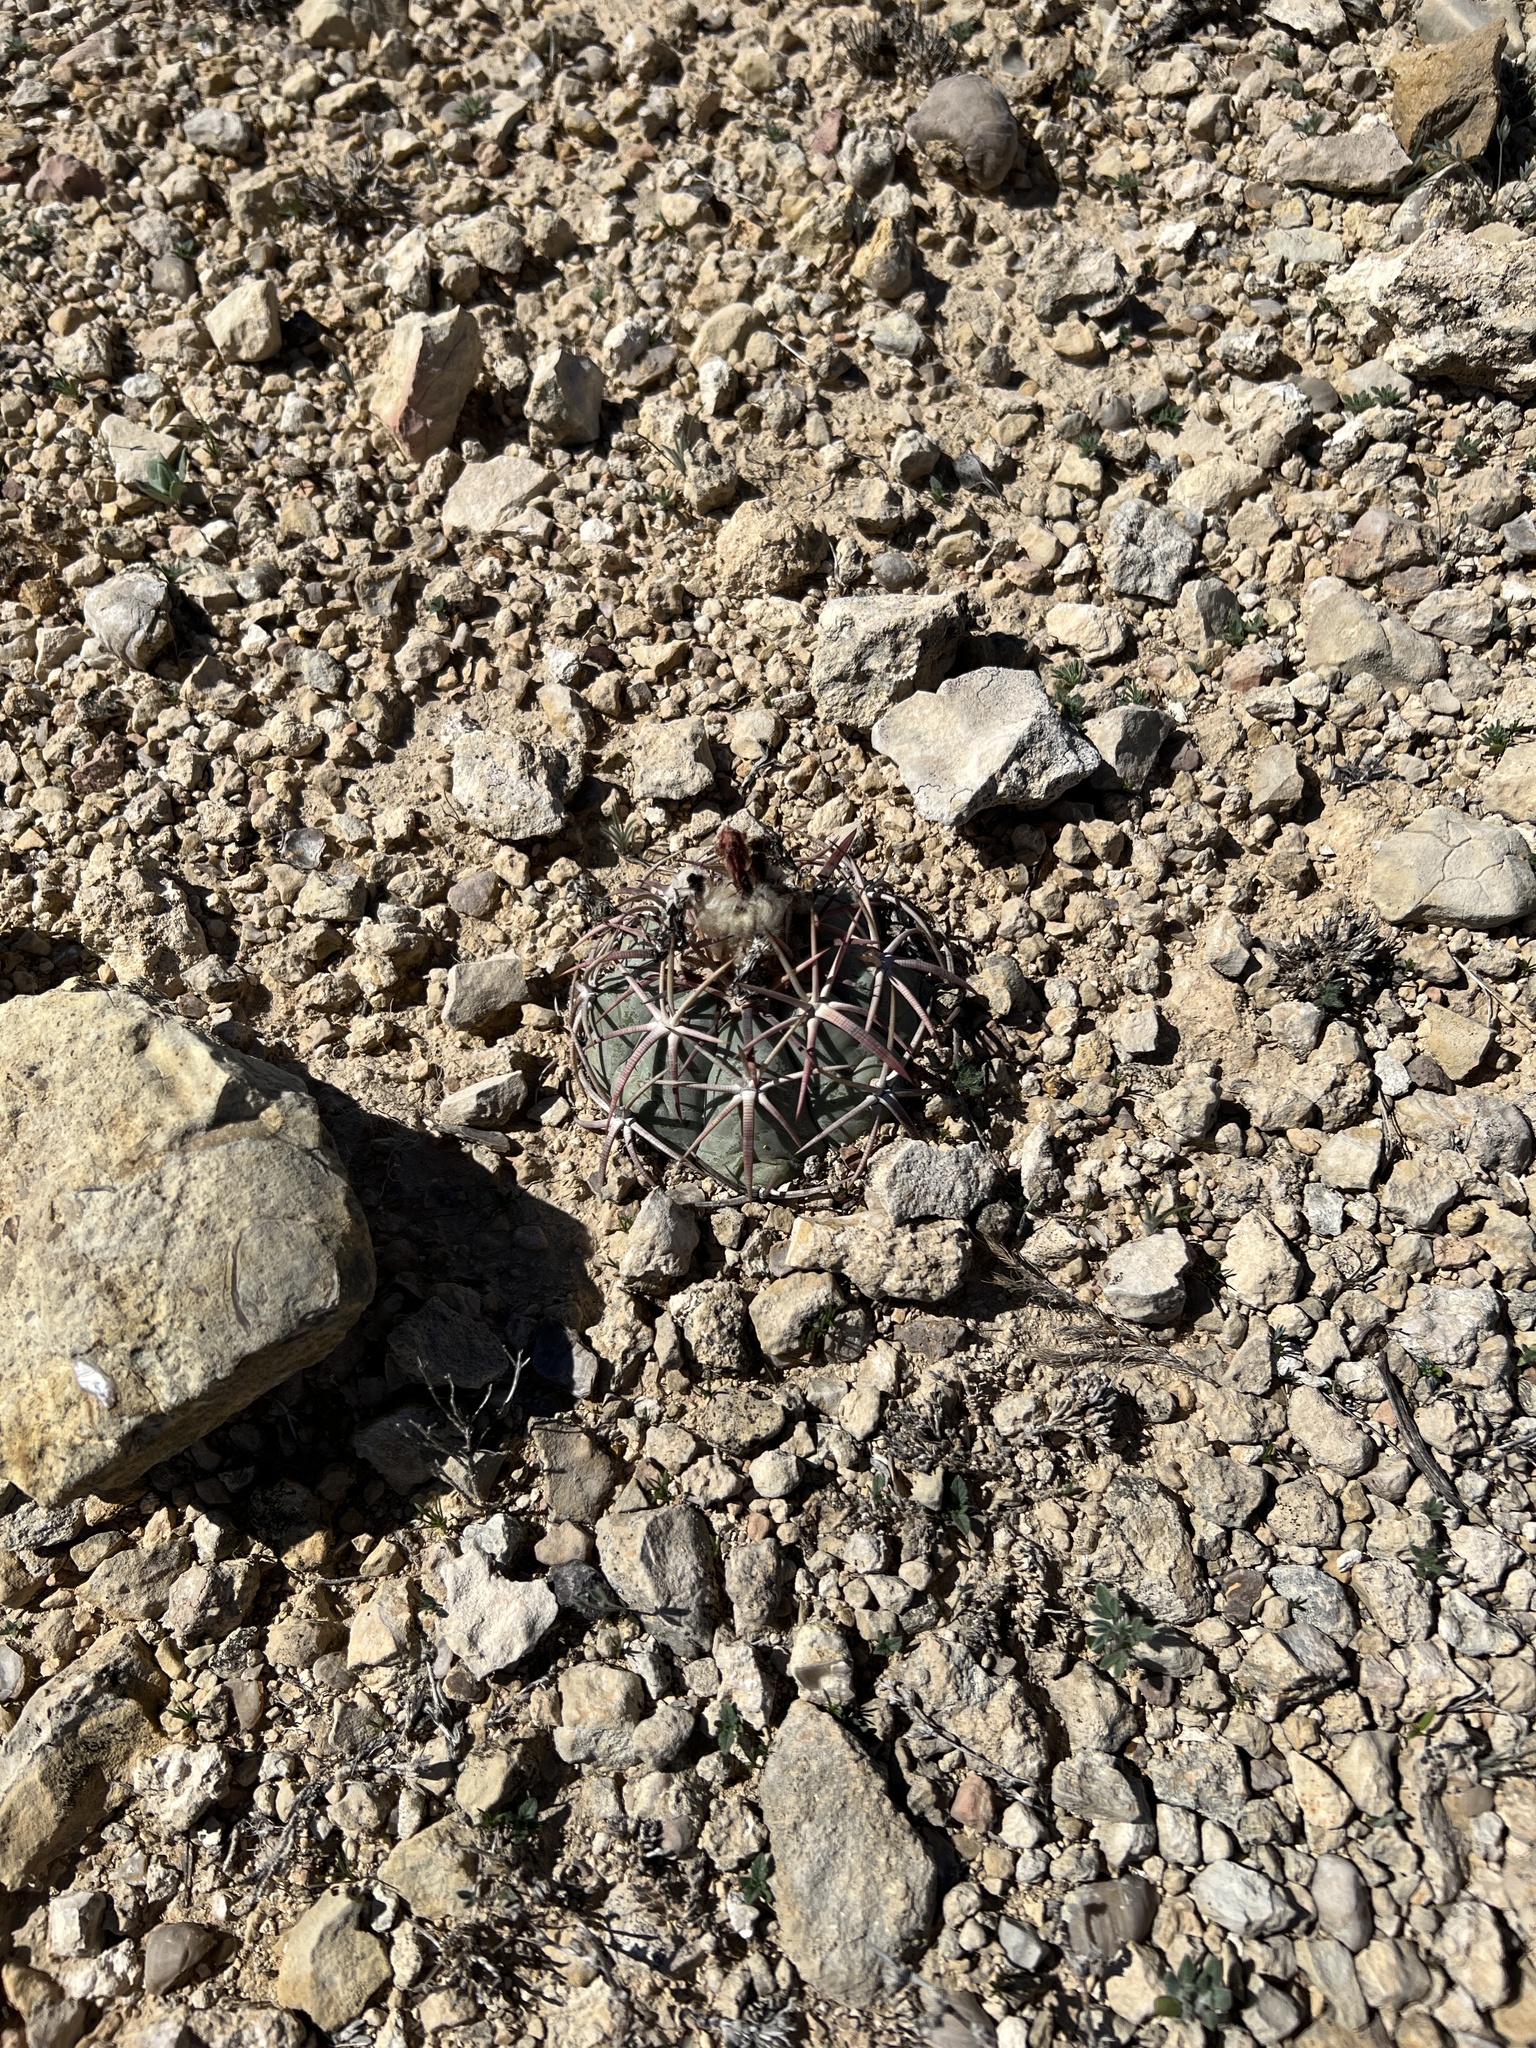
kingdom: Plantae
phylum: Tracheophyta
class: Magnoliopsida
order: Caryophyllales
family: Cactaceae
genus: Echinocactus
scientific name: Echinocactus horizonthalonius
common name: Devilshead
